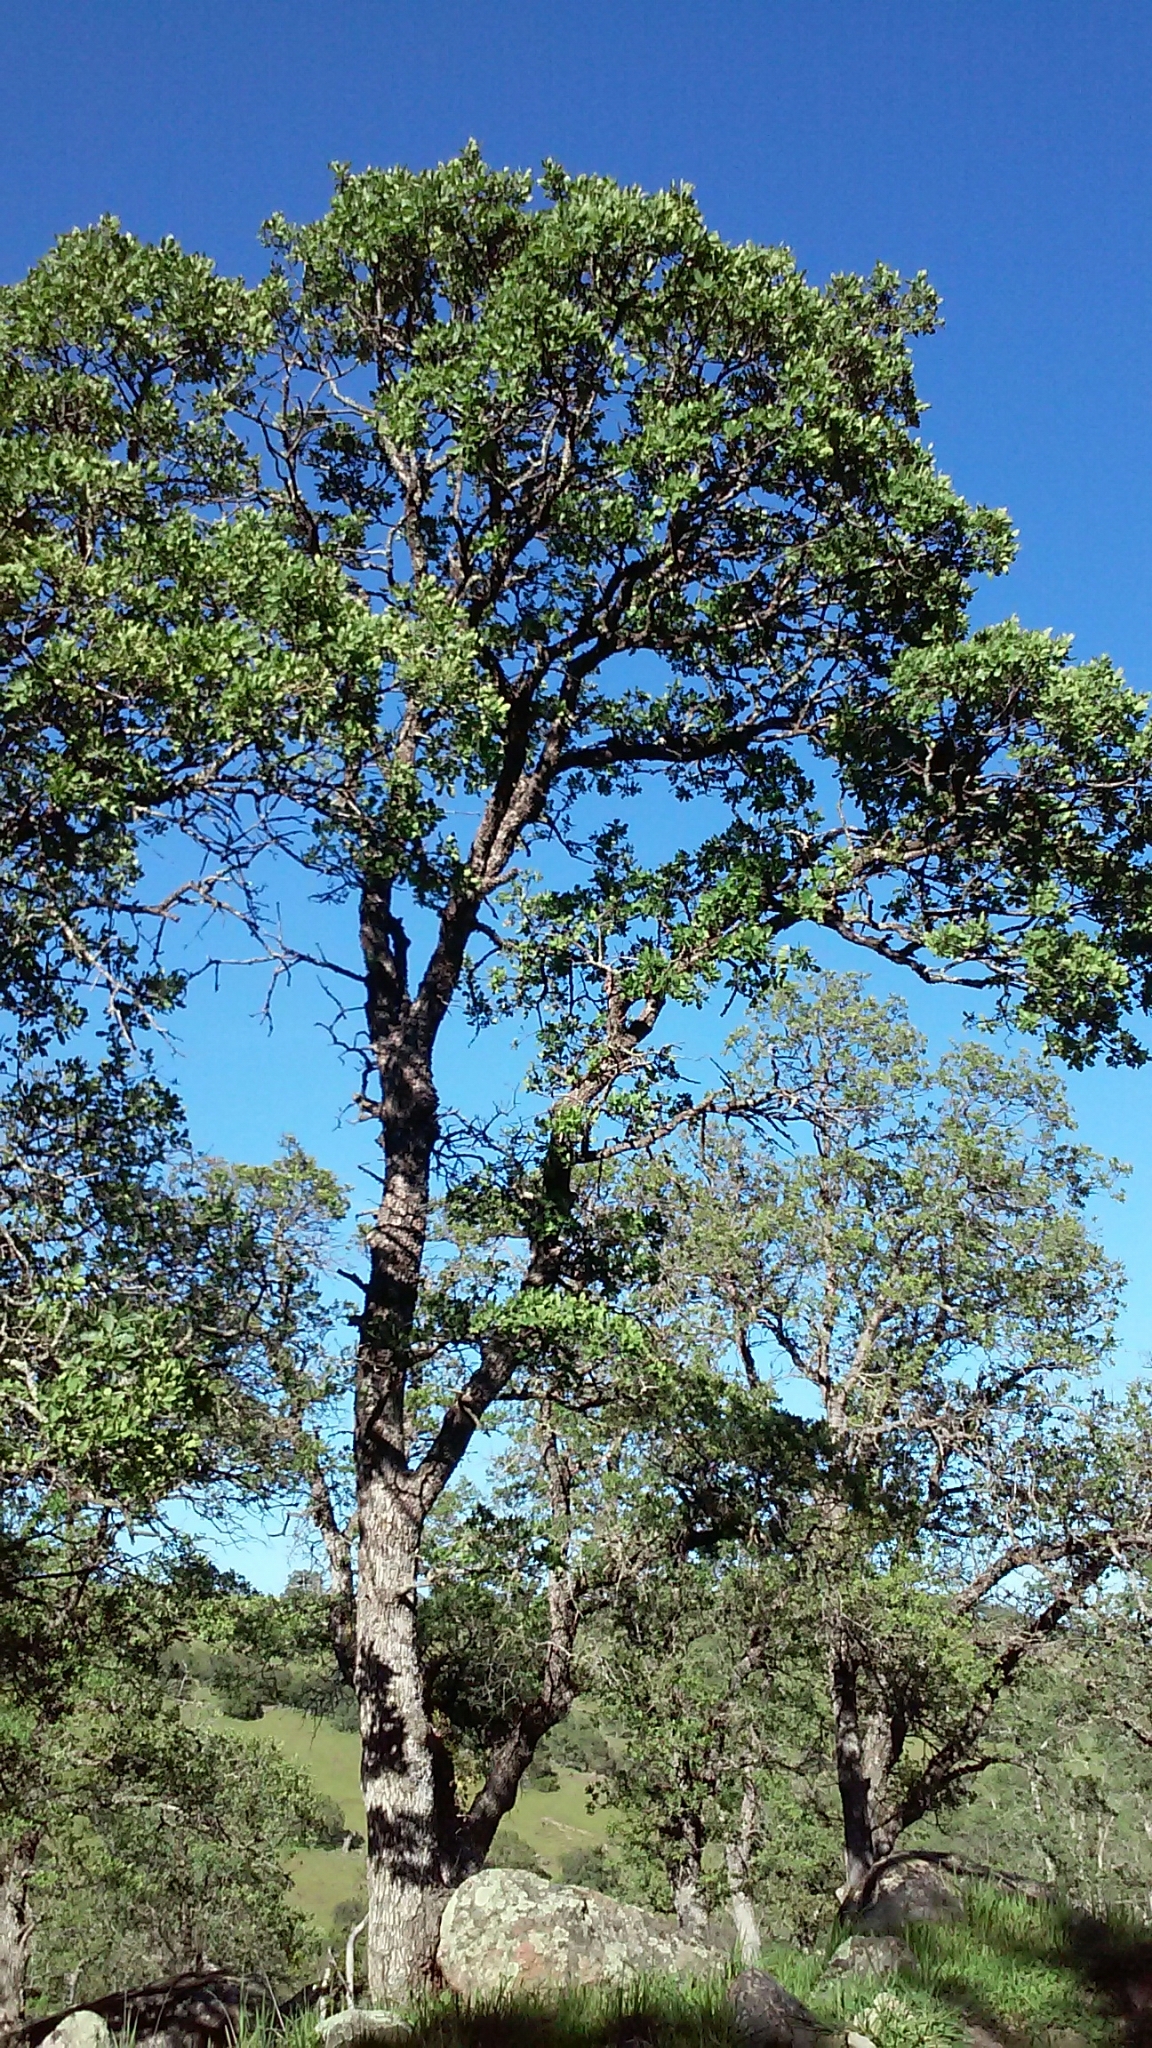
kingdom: Plantae
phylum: Tracheophyta
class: Magnoliopsida
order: Fagales
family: Fagaceae
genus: Quercus
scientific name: Quercus douglasii
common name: Blue oak
